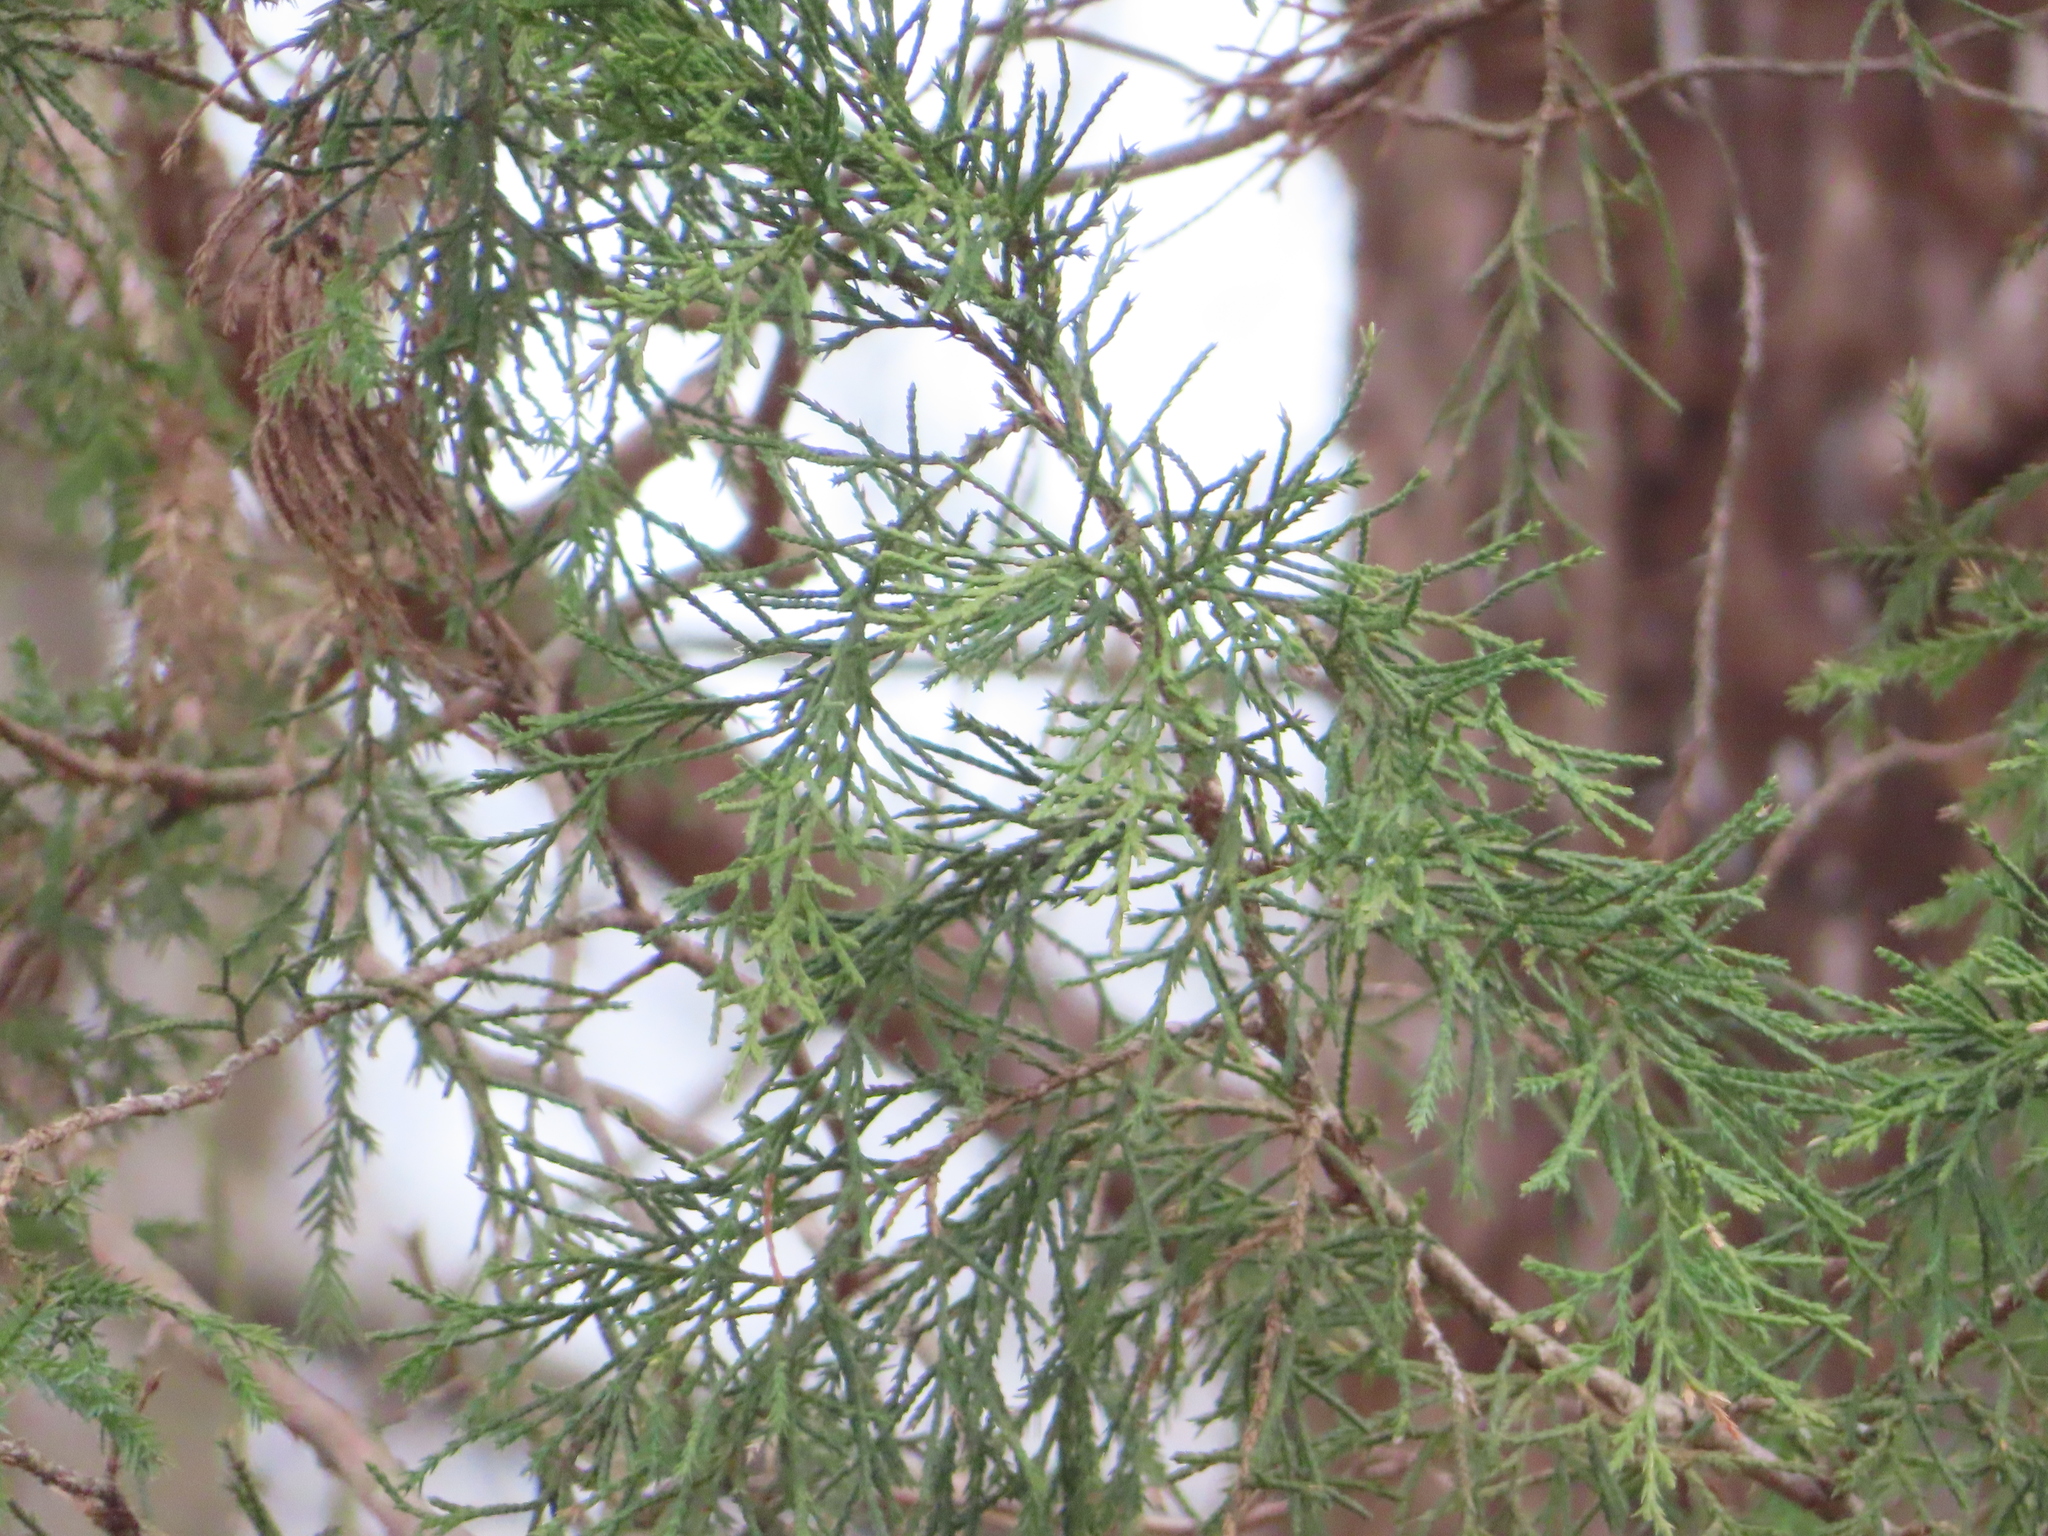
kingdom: Plantae
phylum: Tracheophyta
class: Pinopsida
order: Pinales
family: Cupressaceae
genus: Juniperus
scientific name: Juniperus virginiana
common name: Red juniper
